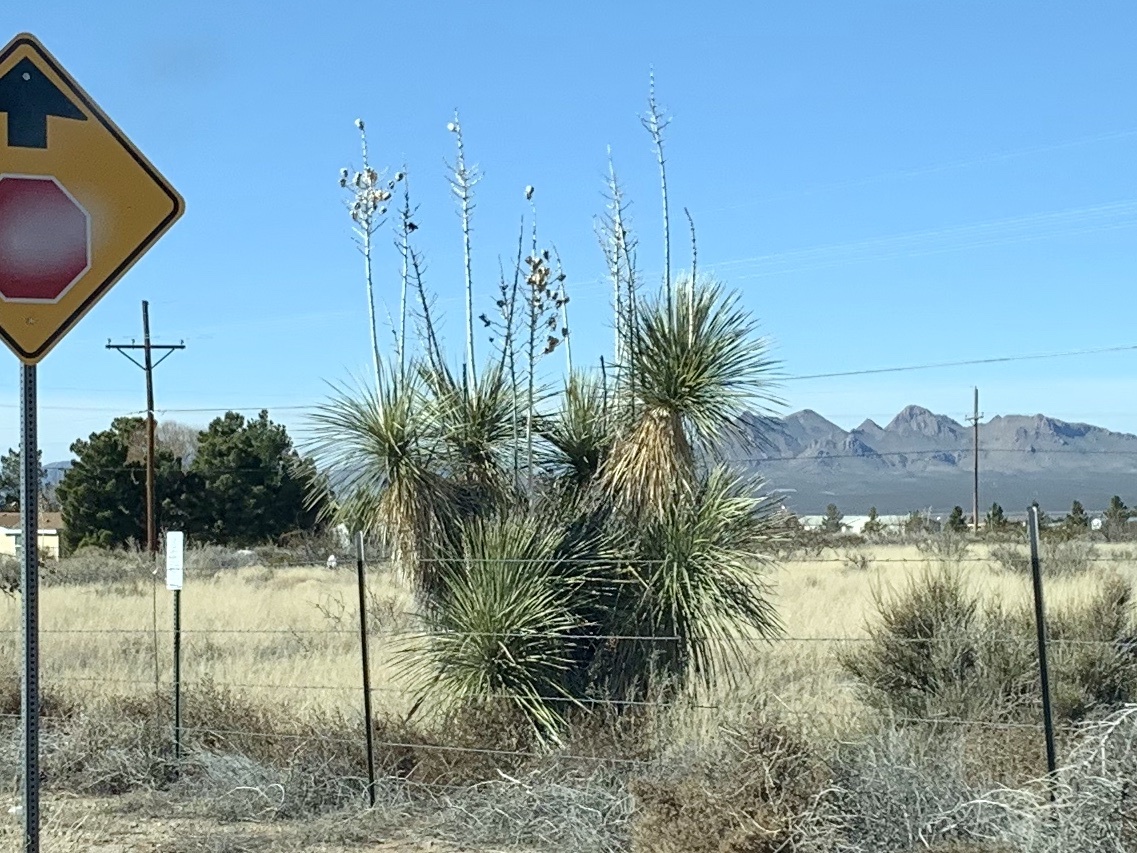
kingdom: Plantae
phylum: Tracheophyta
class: Liliopsida
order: Asparagales
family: Asparagaceae
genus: Yucca
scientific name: Yucca elata
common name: Palmella
